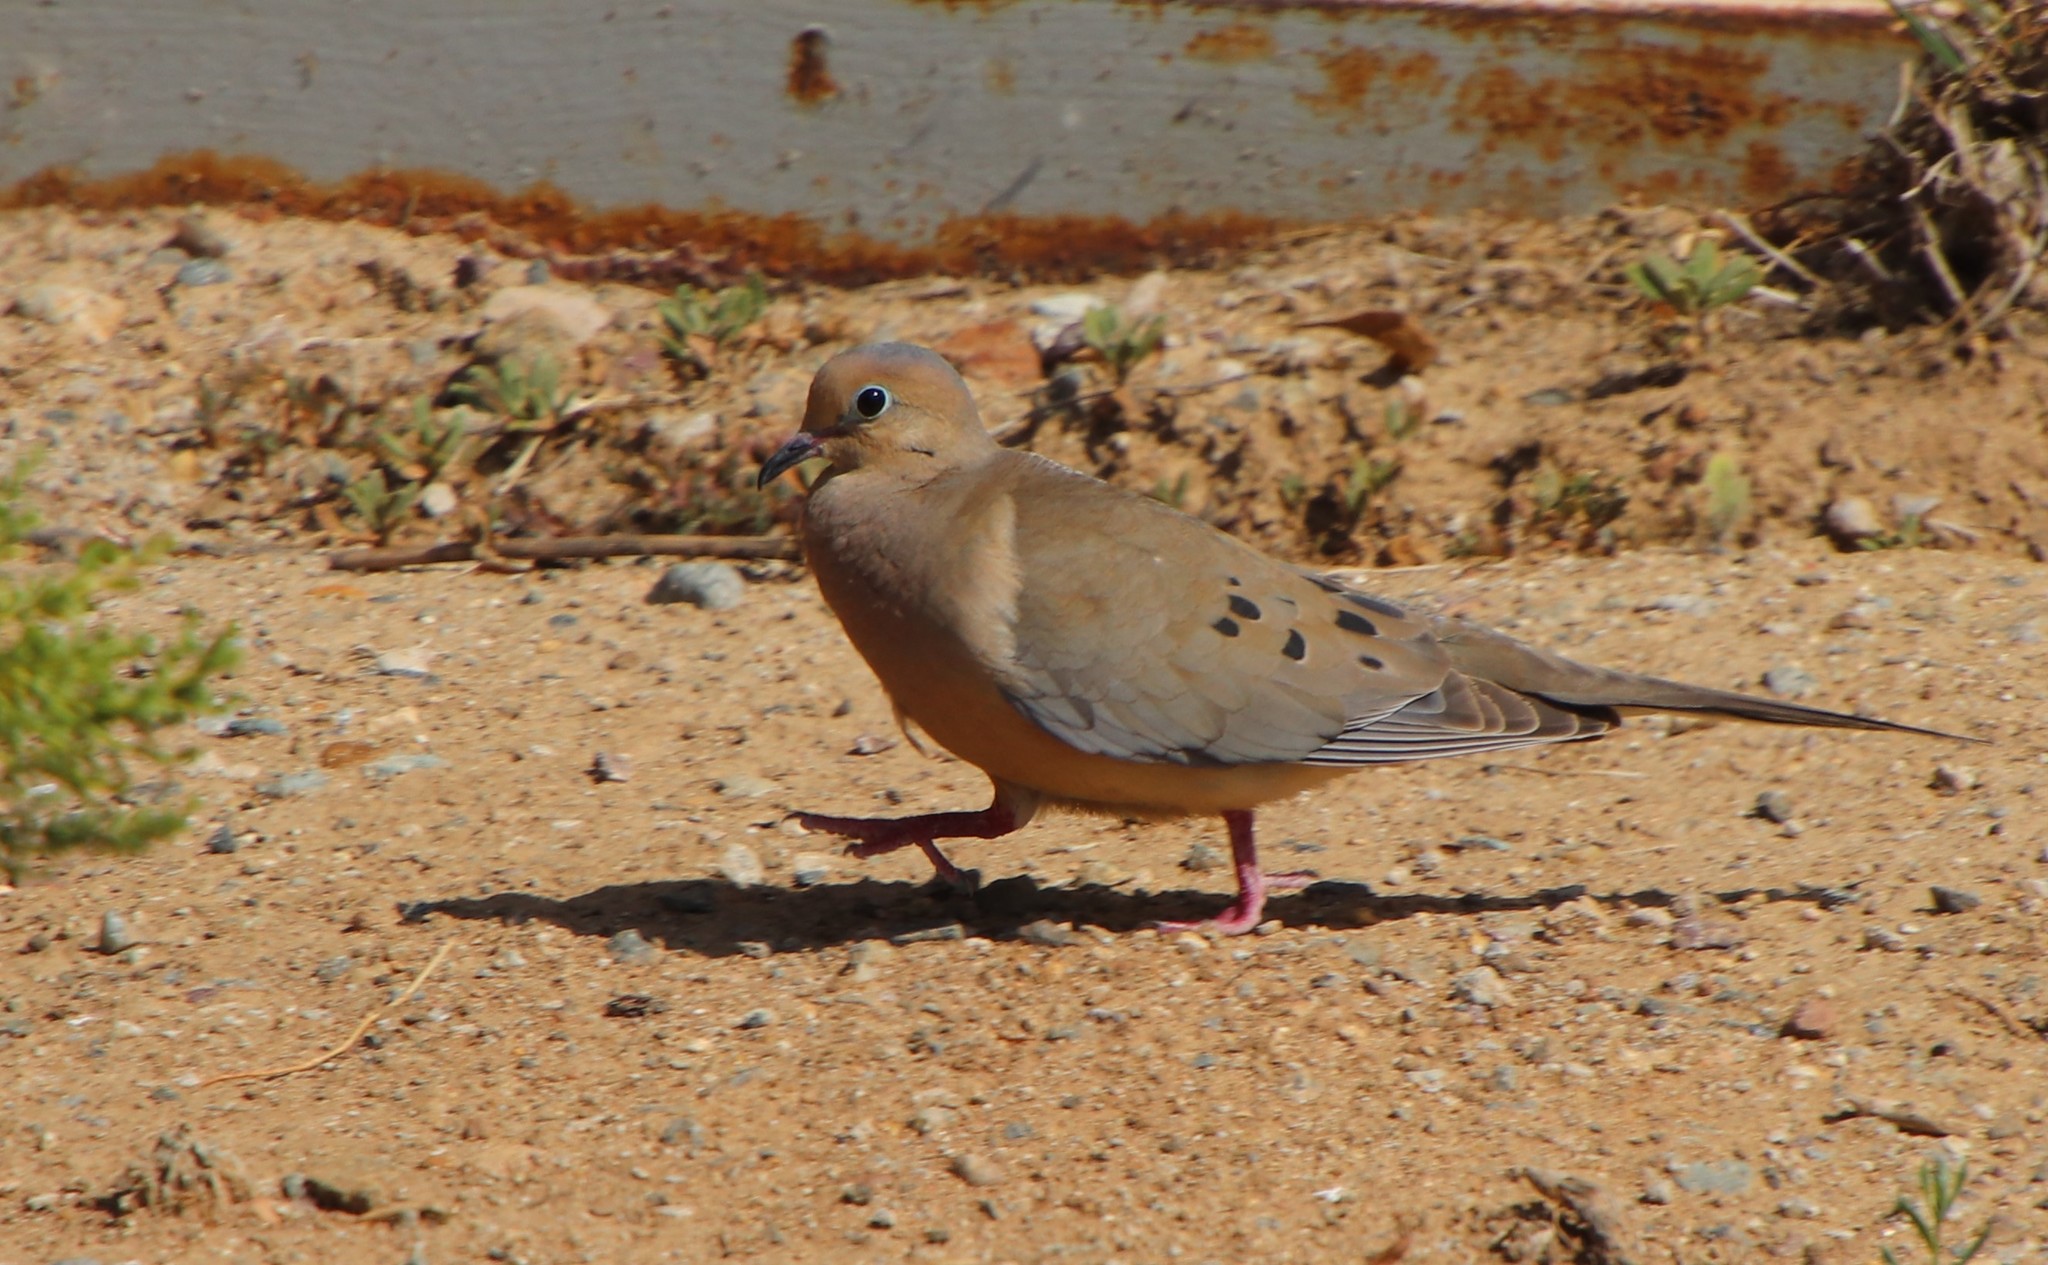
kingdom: Animalia
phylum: Chordata
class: Aves
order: Columbiformes
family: Columbidae
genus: Zenaida
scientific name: Zenaida macroura
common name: Mourning dove
